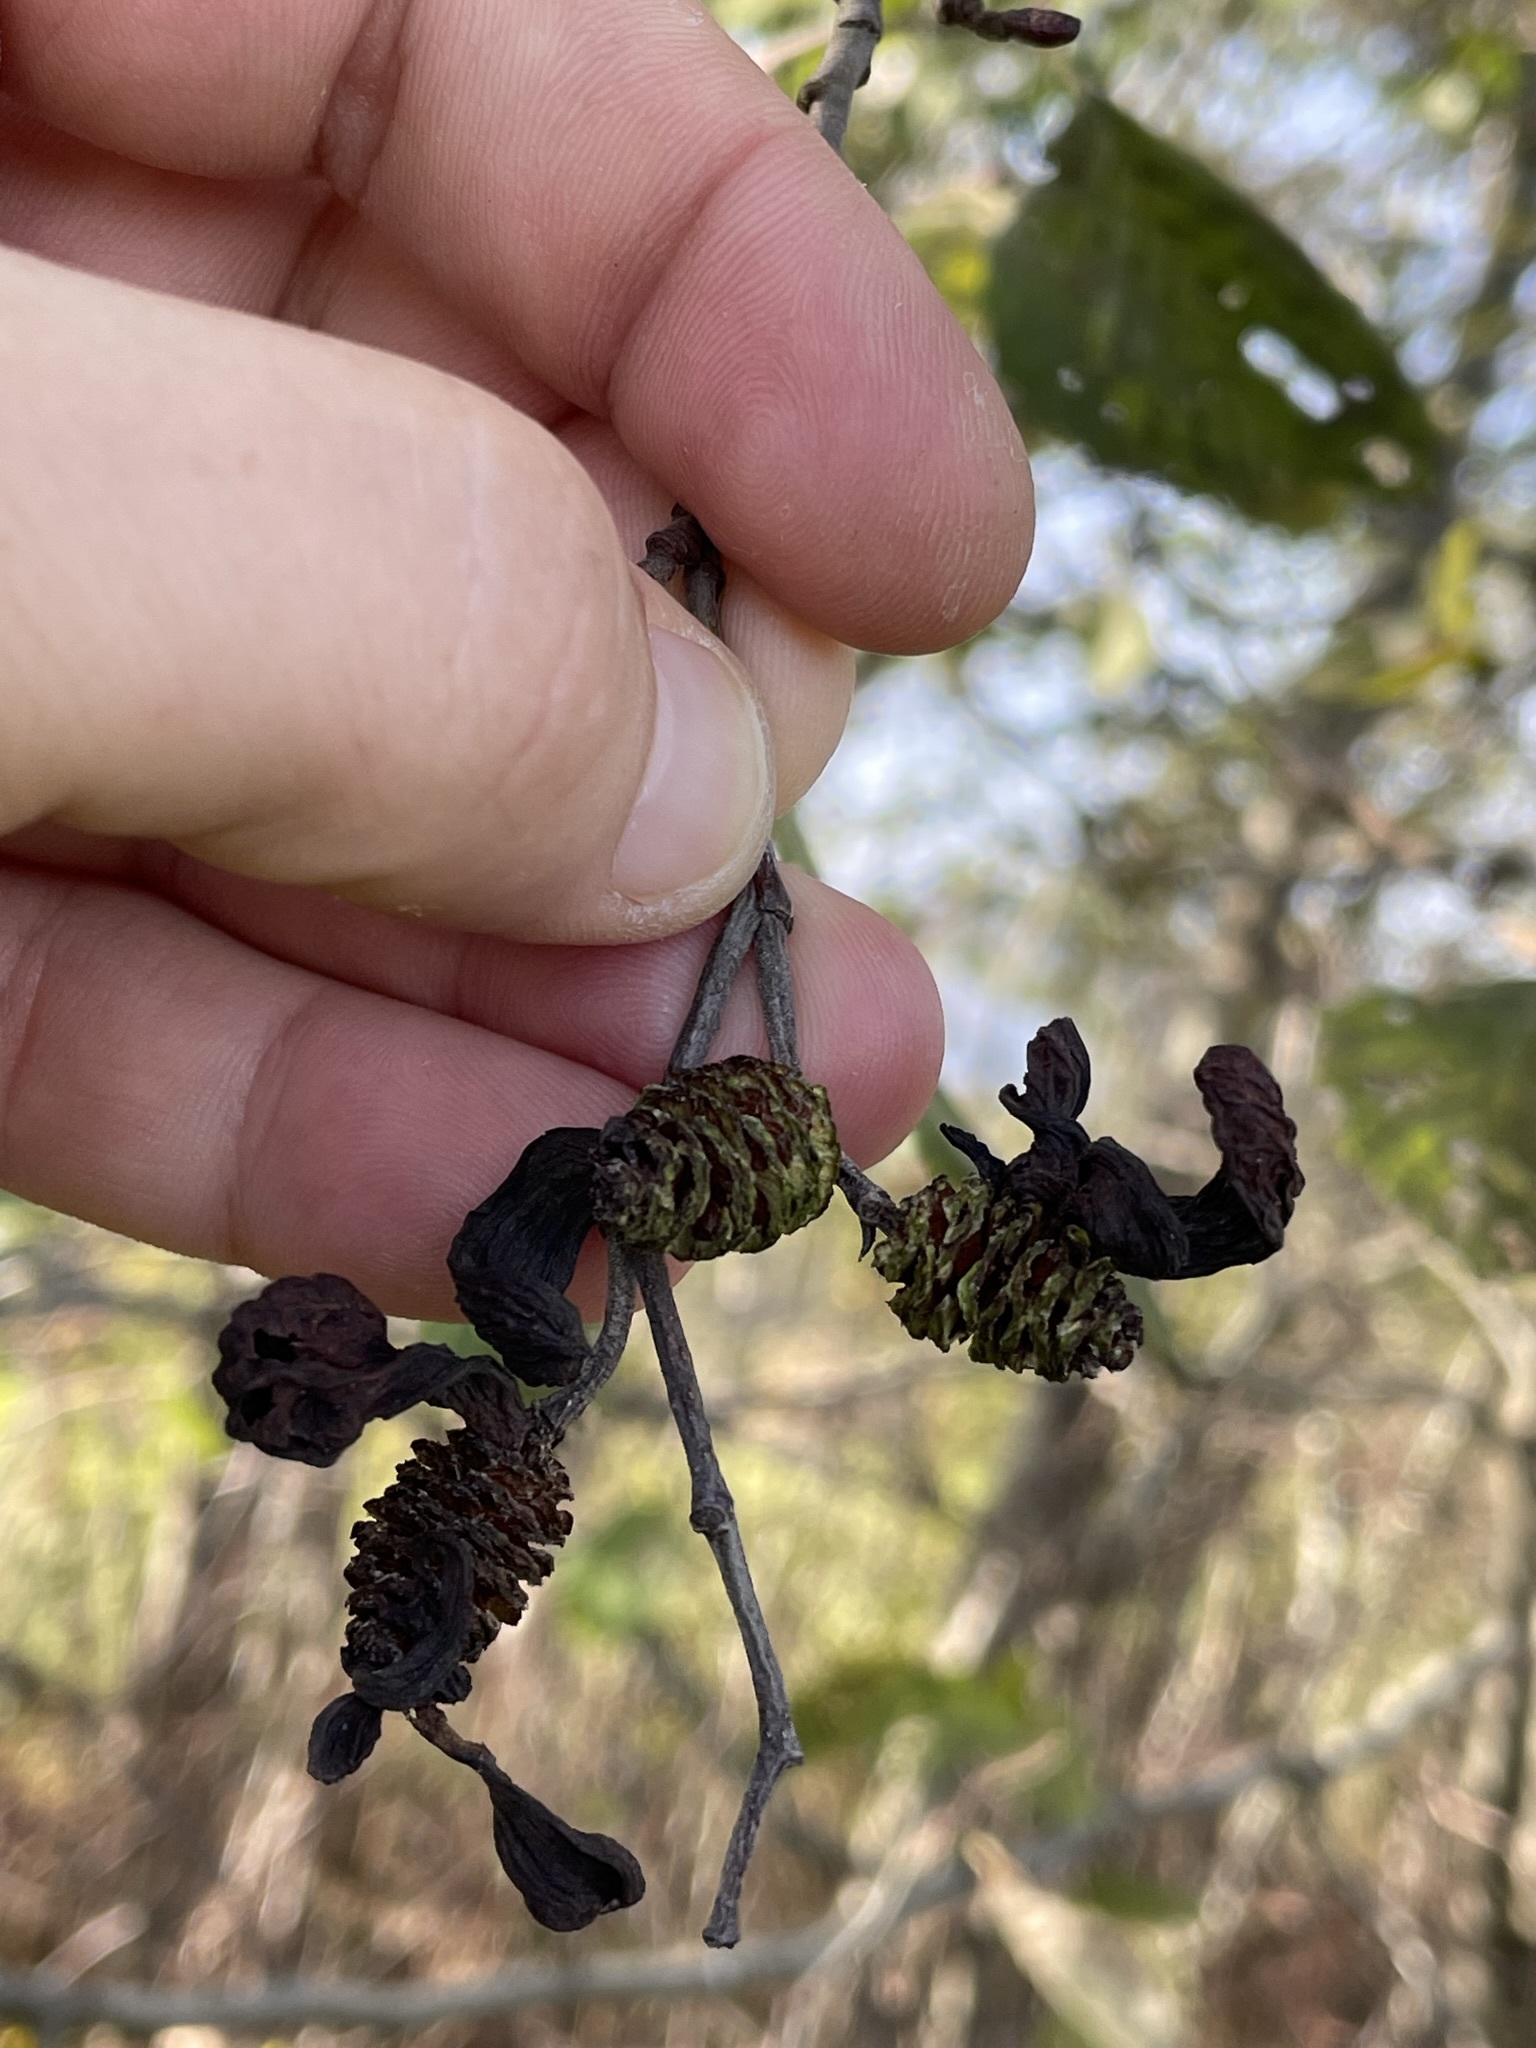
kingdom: Plantae
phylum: Tracheophyta
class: Magnoliopsida
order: Fagales
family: Betulaceae
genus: Alnus
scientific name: Alnus incana
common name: Grey alder
